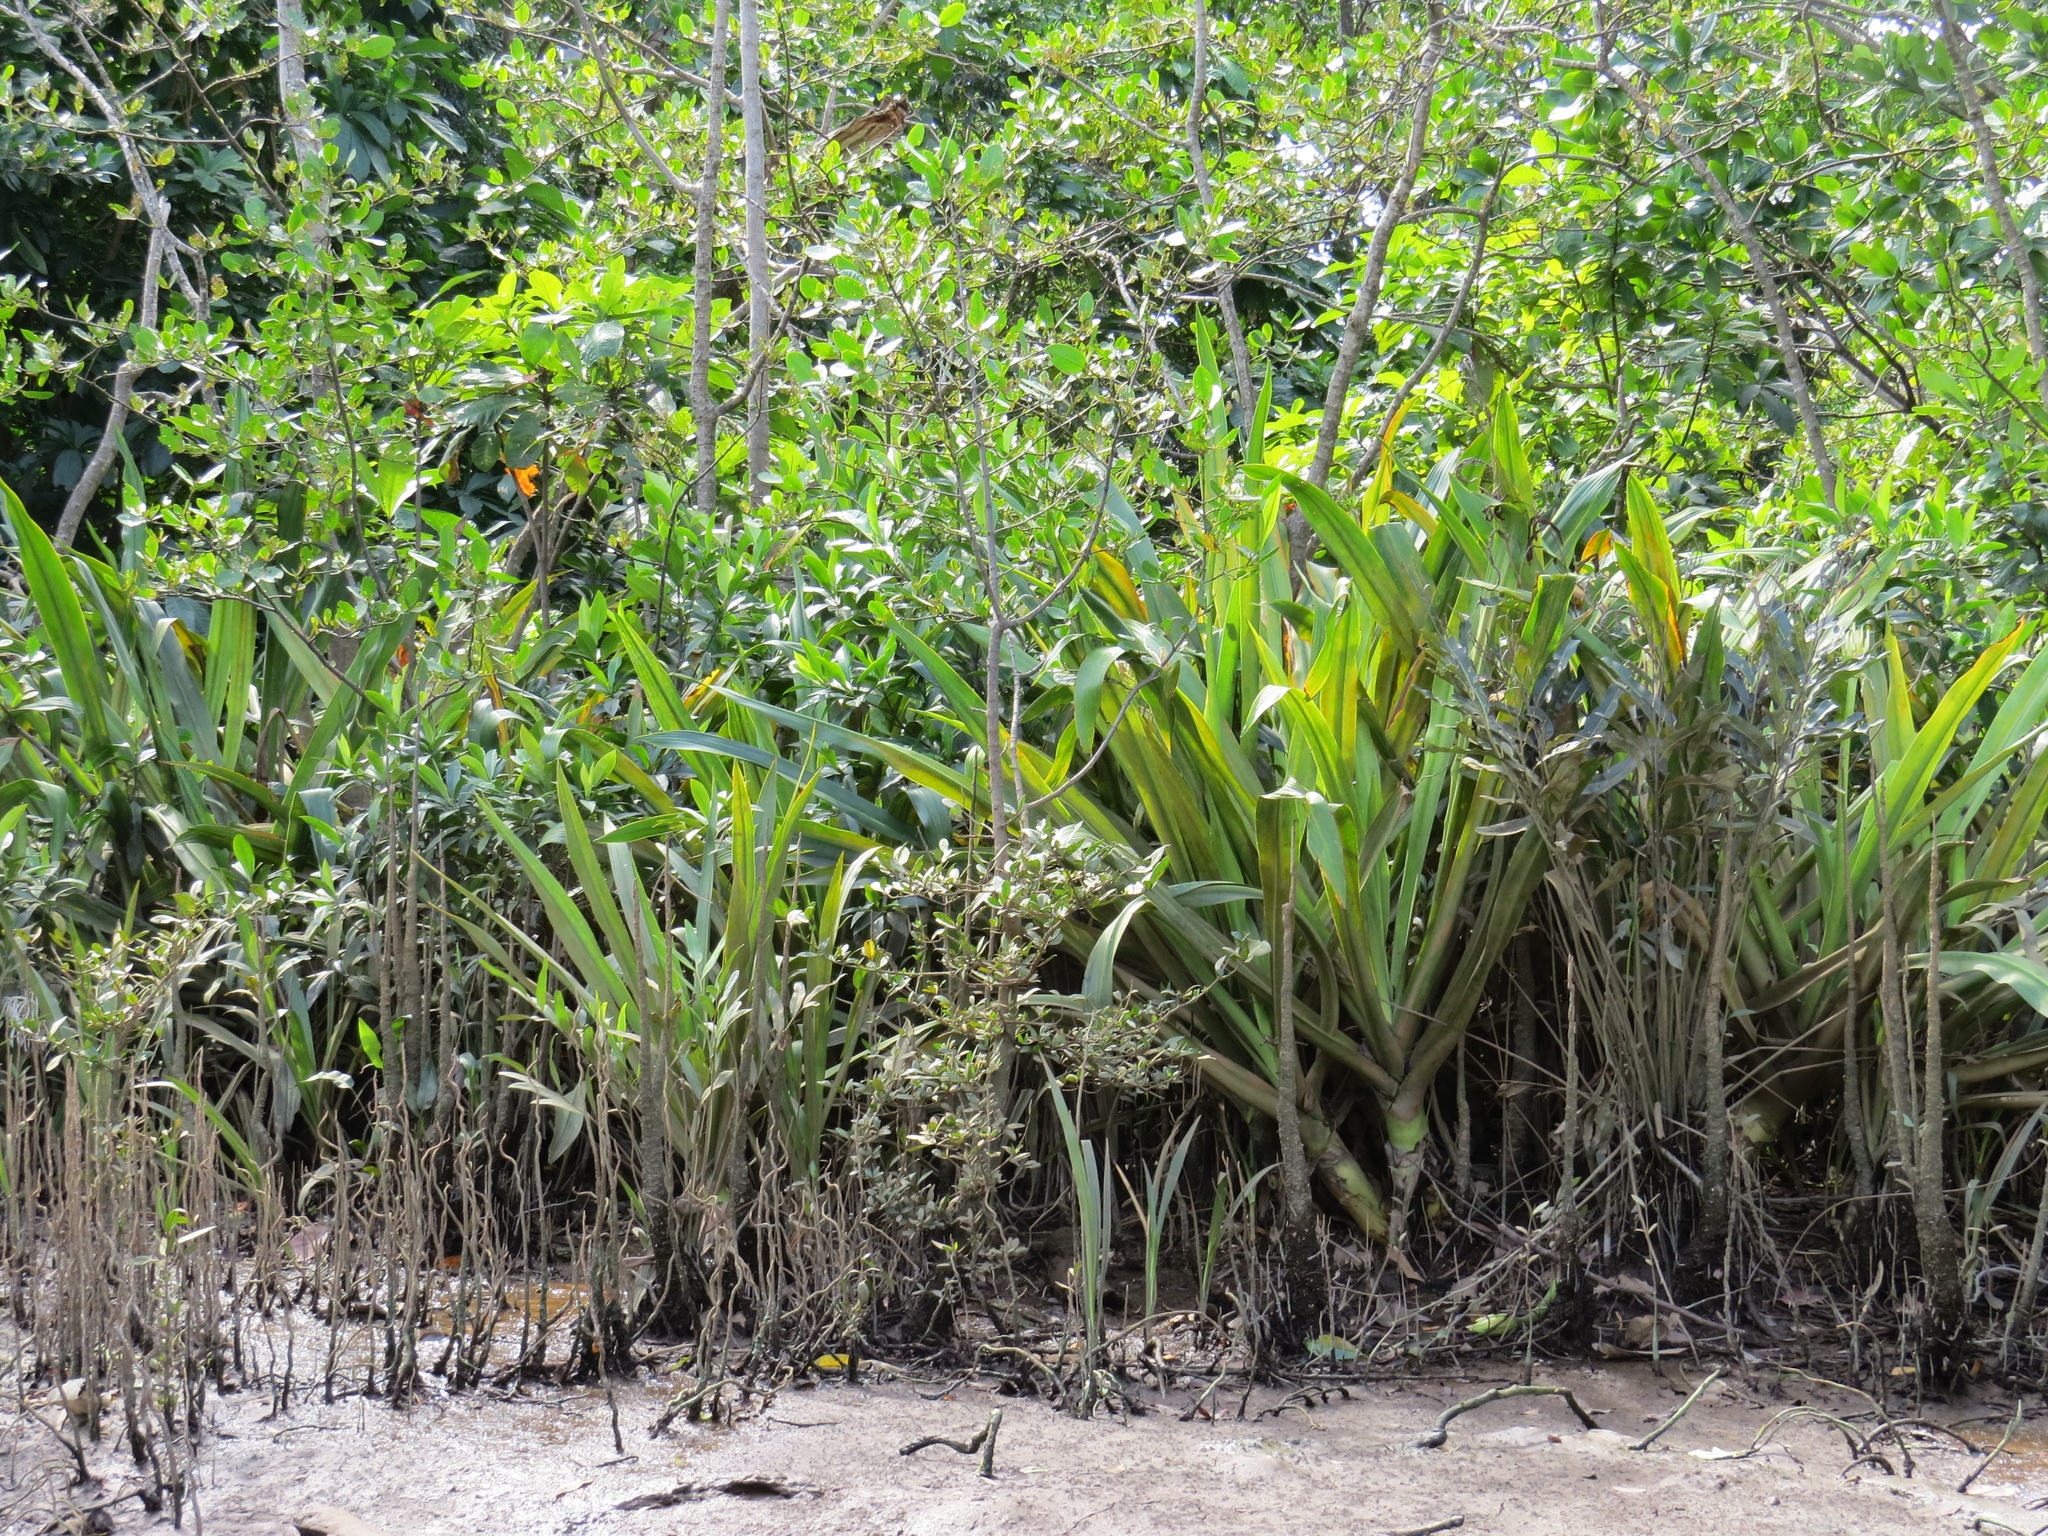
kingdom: Plantae
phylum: Tracheophyta
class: Liliopsida
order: Asparagales
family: Amaryllidaceae
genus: Crinum
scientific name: Crinum pedunculatum
